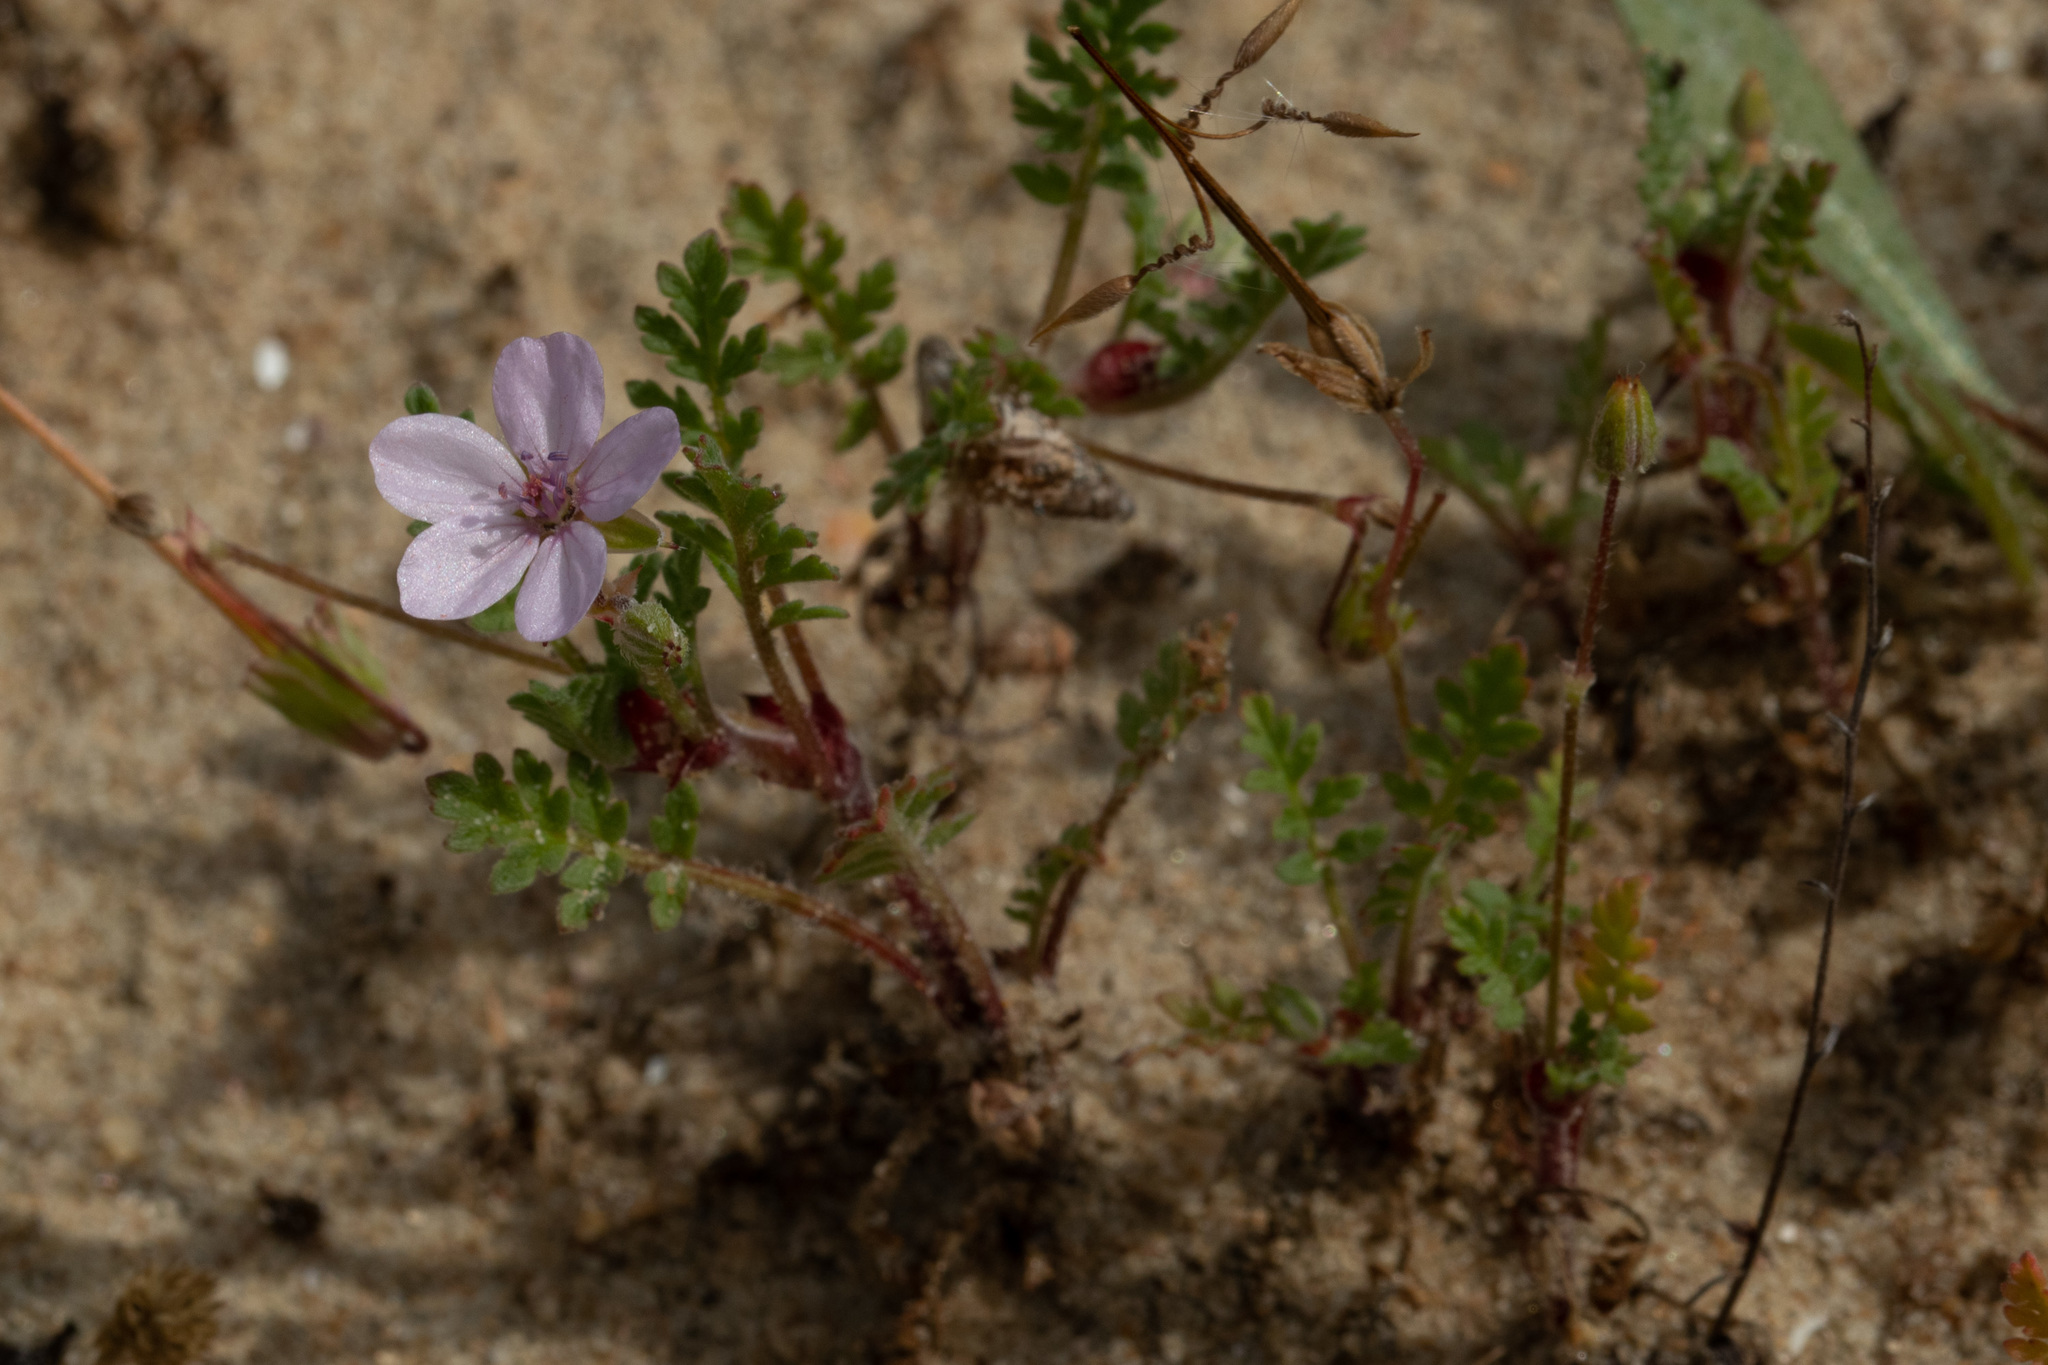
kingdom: Plantae
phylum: Tracheophyta
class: Magnoliopsida
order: Geraniales
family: Geraniaceae
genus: Erodium
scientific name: Erodium cicutarium
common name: Common stork's-bill
